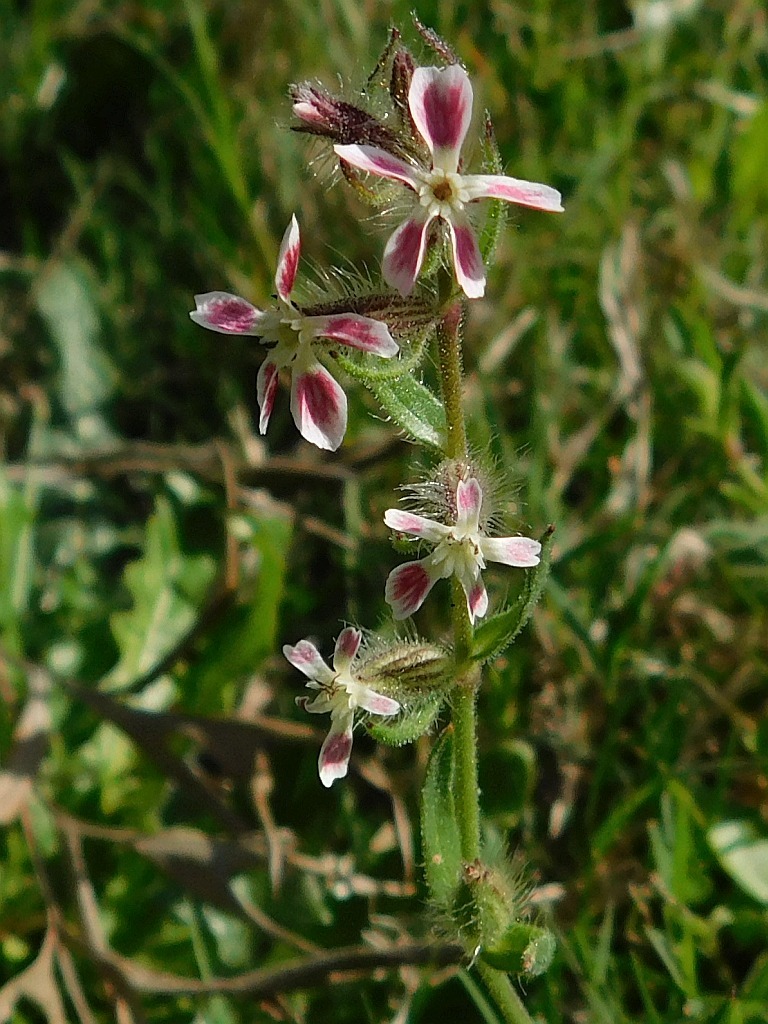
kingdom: Plantae
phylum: Tracheophyta
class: Magnoliopsida
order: Caryophyllales
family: Caryophyllaceae
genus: Silene
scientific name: Silene gallica
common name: Small-flowered catchfly
